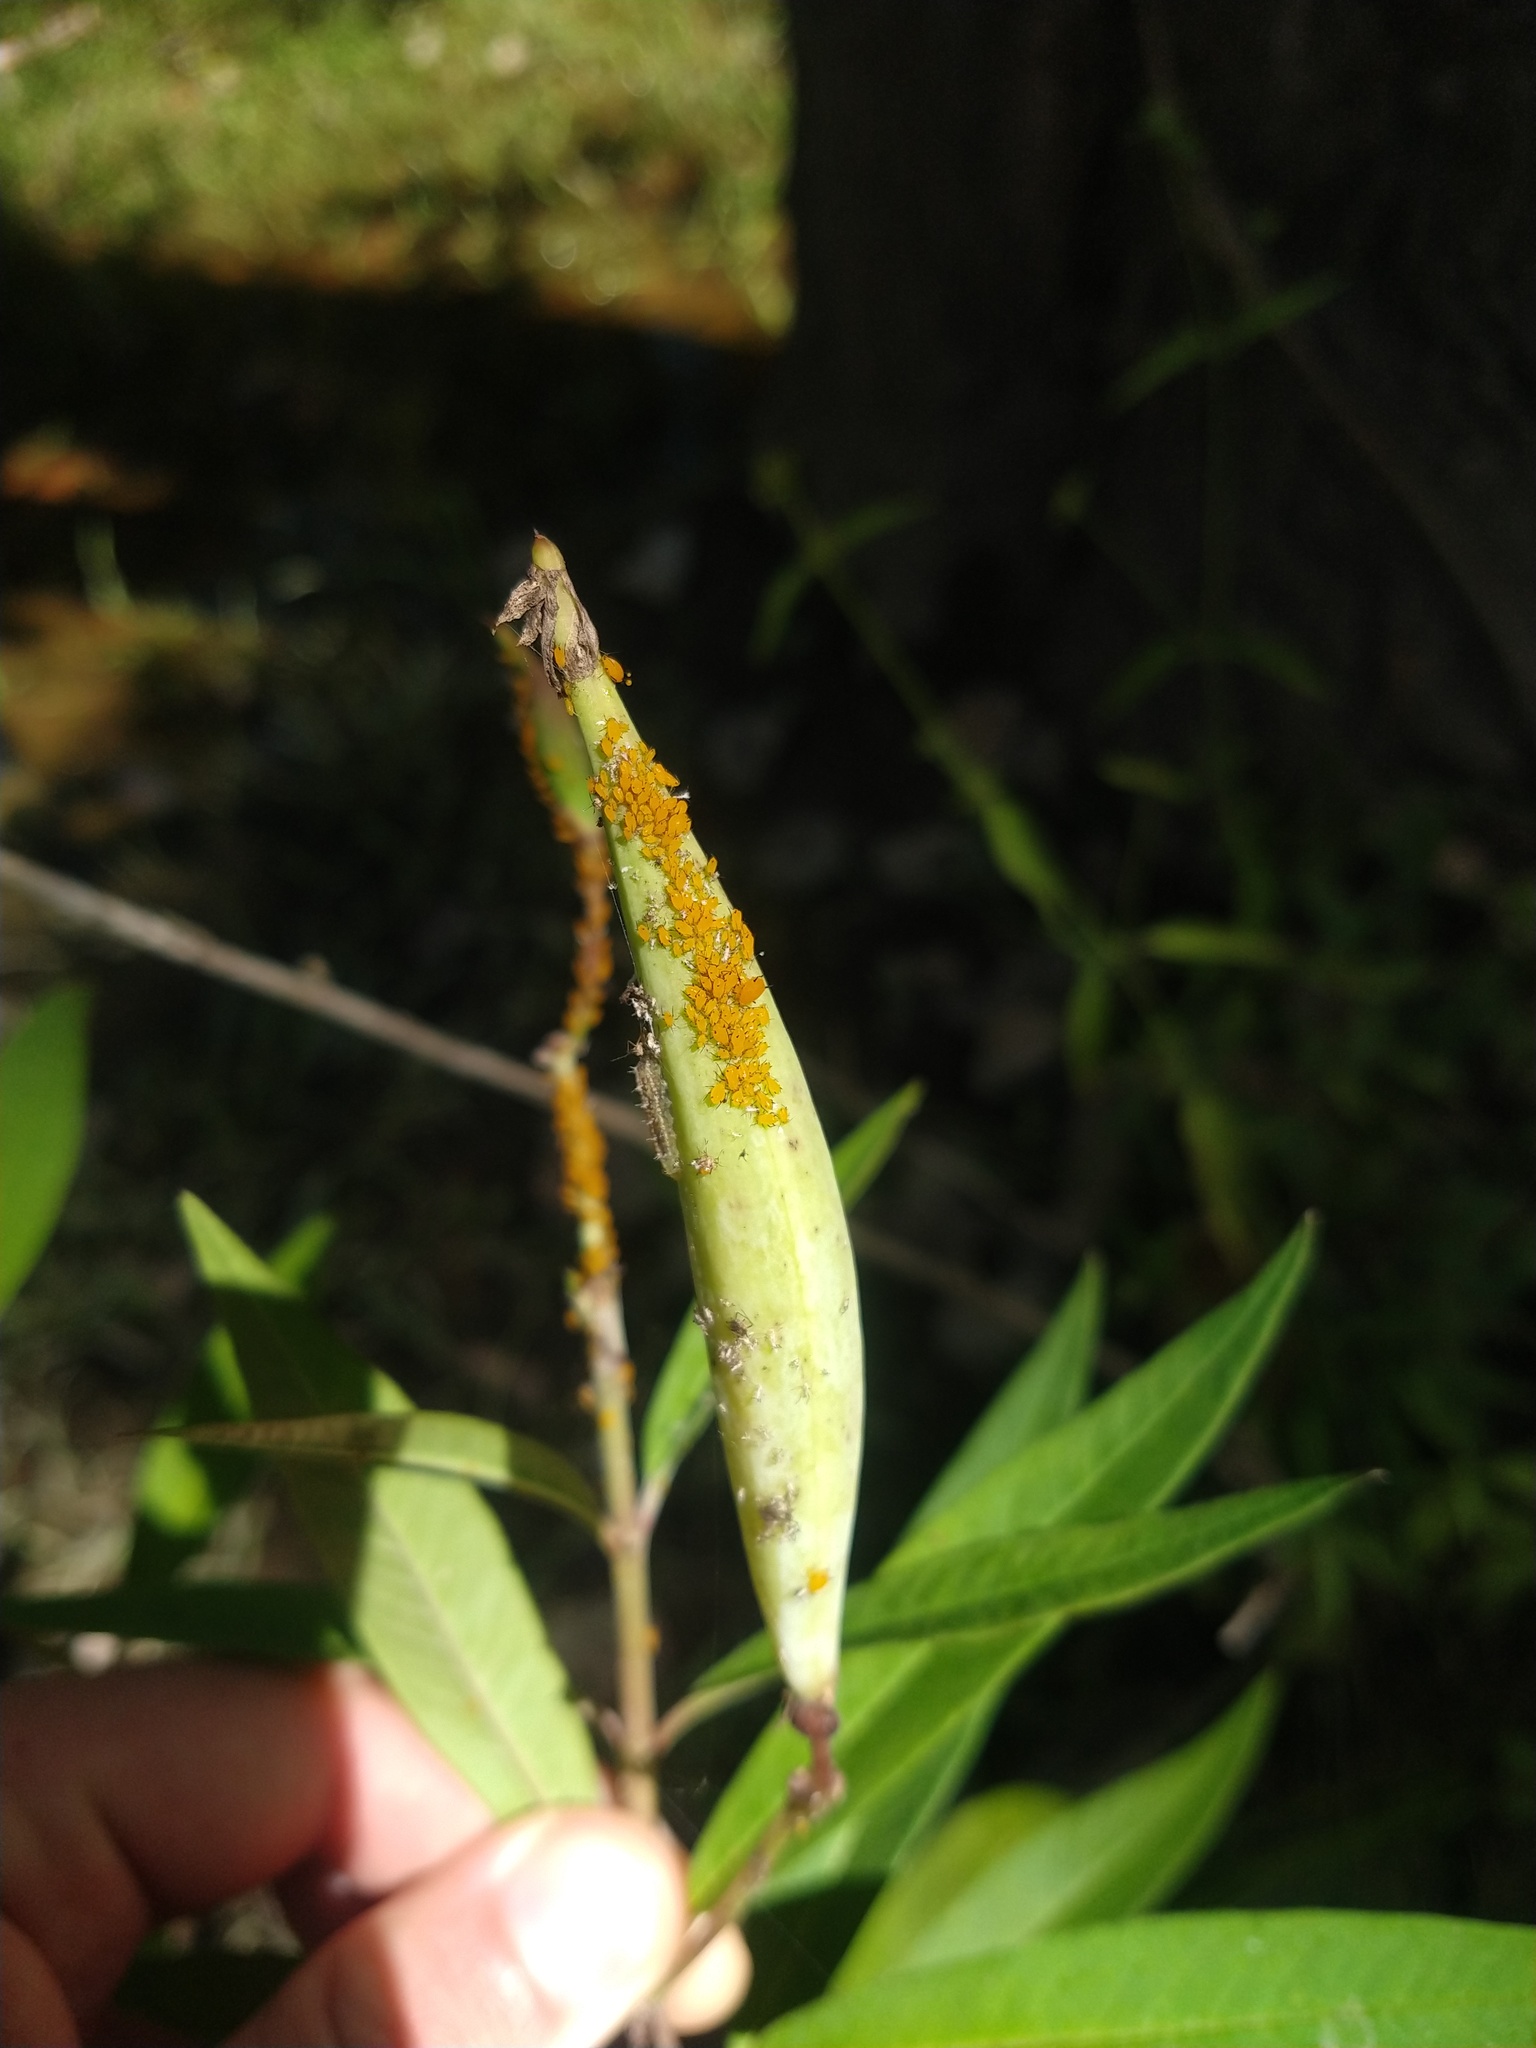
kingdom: Animalia
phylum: Arthropoda
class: Insecta
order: Hemiptera
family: Aphididae
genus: Aphis
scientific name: Aphis nerii
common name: Oleander aphid
